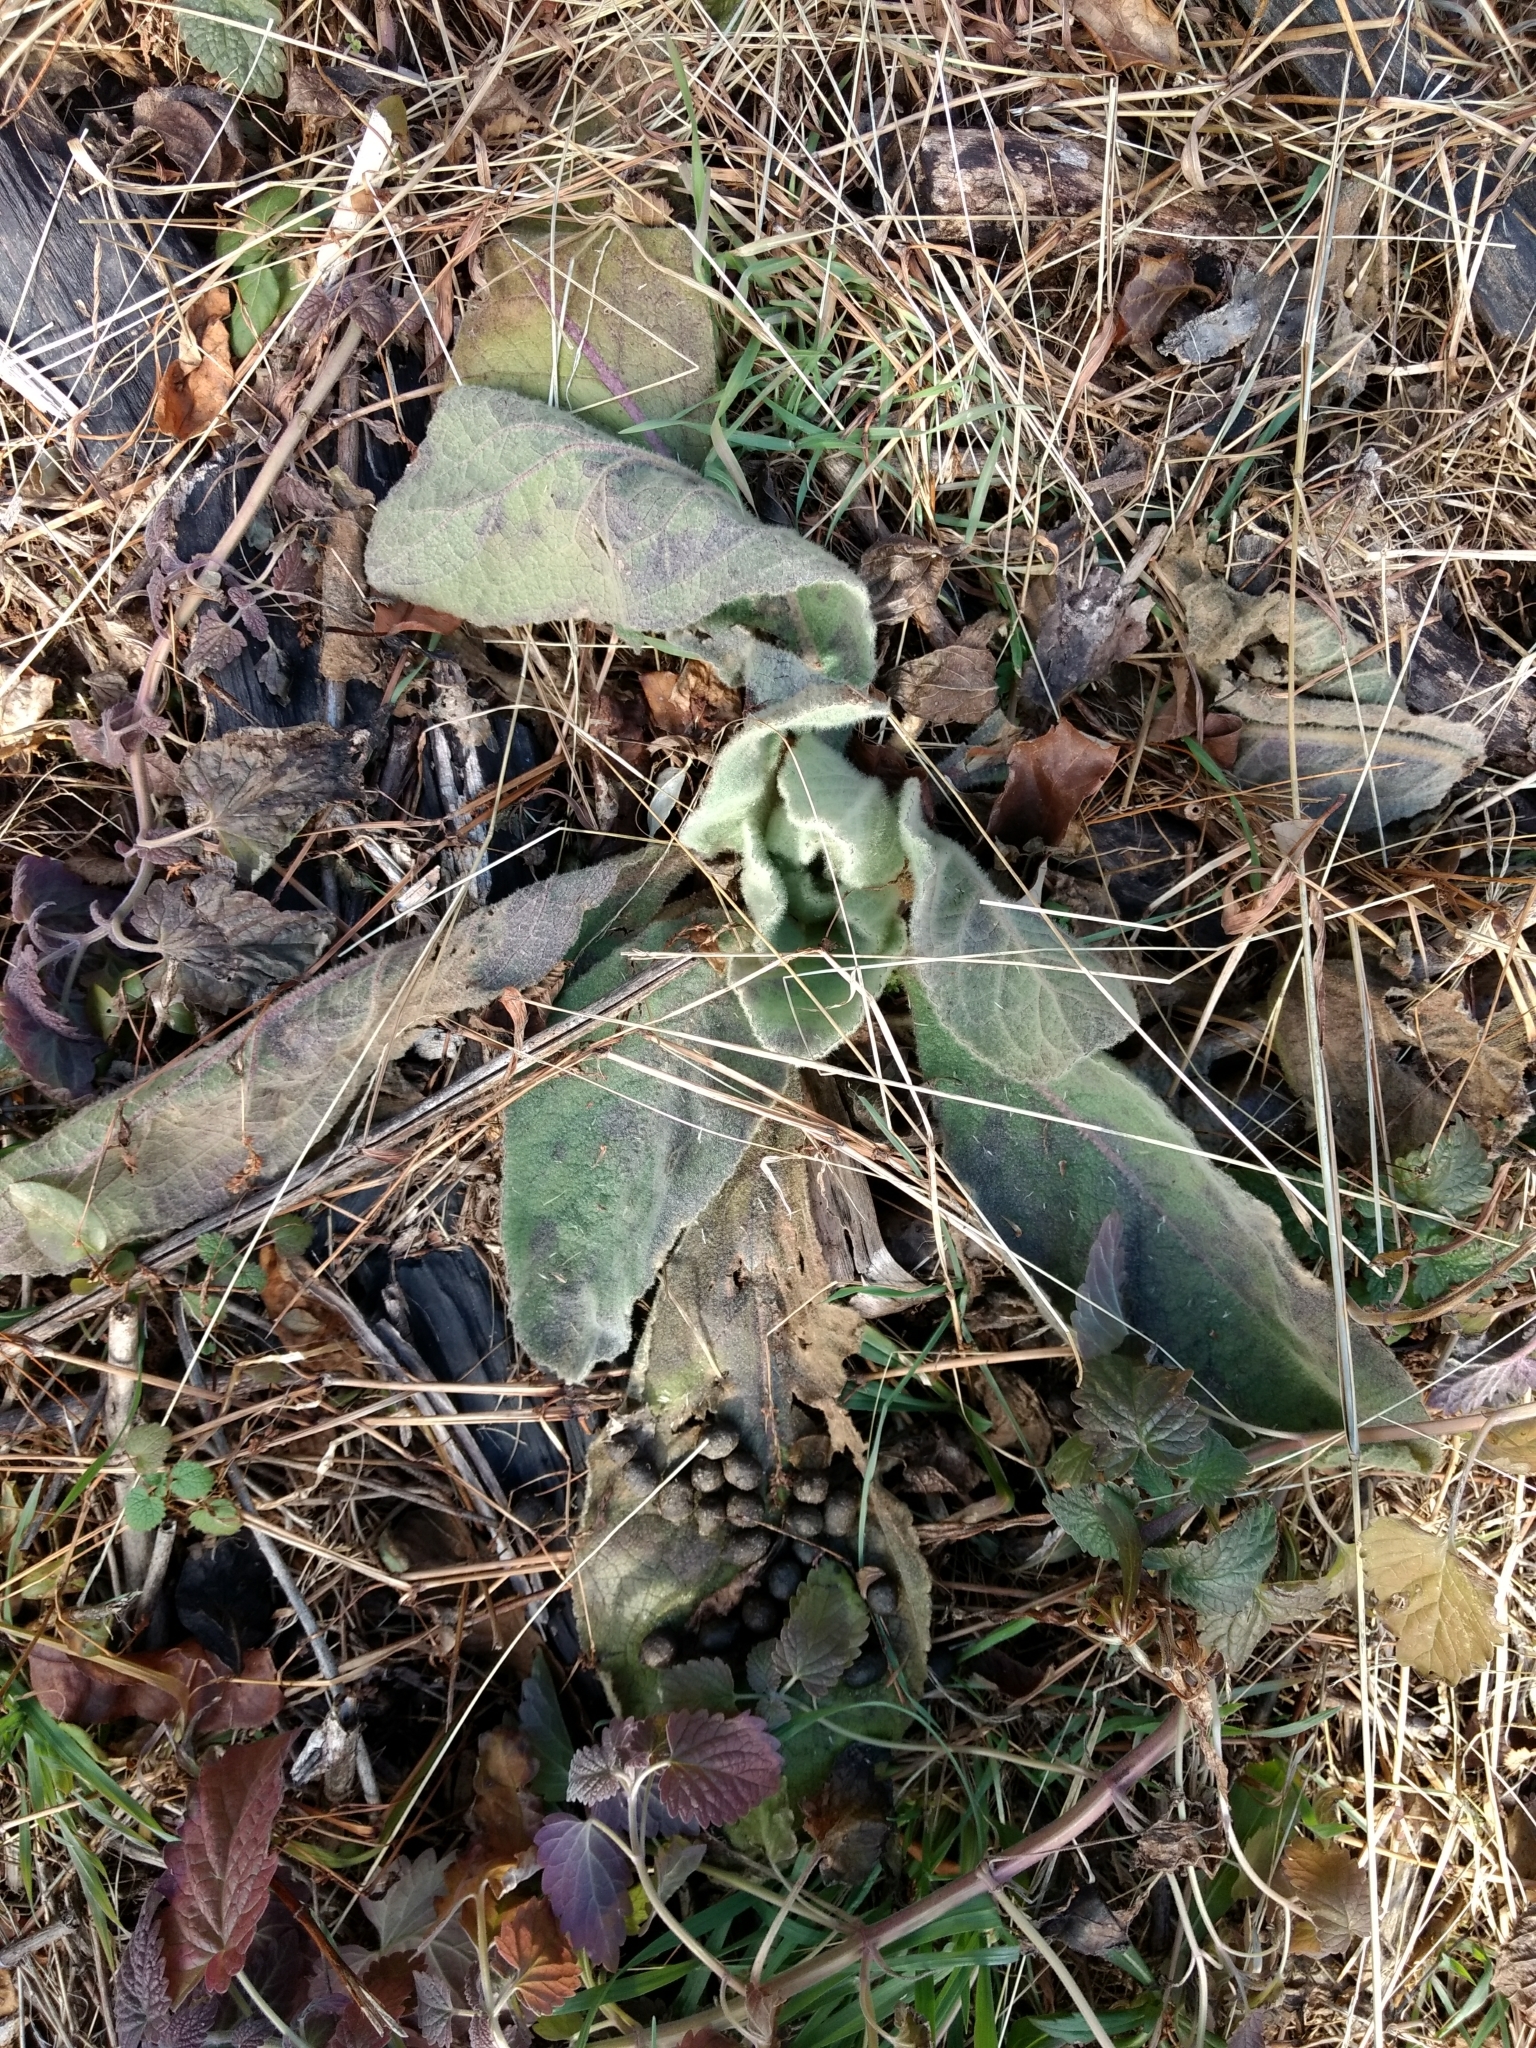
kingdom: Plantae
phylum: Tracheophyta
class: Magnoliopsida
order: Lamiales
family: Scrophulariaceae
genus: Verbascum
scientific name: Verbascum thapsus
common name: Common mullein
